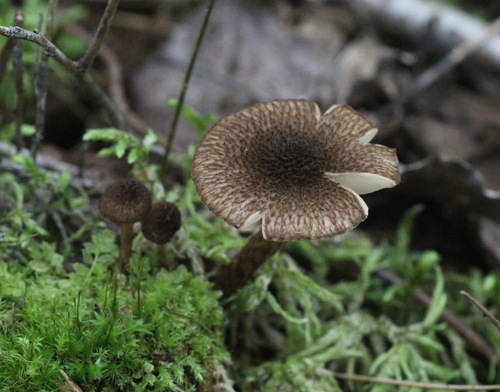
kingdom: Fungi
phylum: Basidiomycota
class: Agaricomycetes
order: Agaricales
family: Inocybaceae
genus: Inocybe
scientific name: Inocybe lanuginosa
